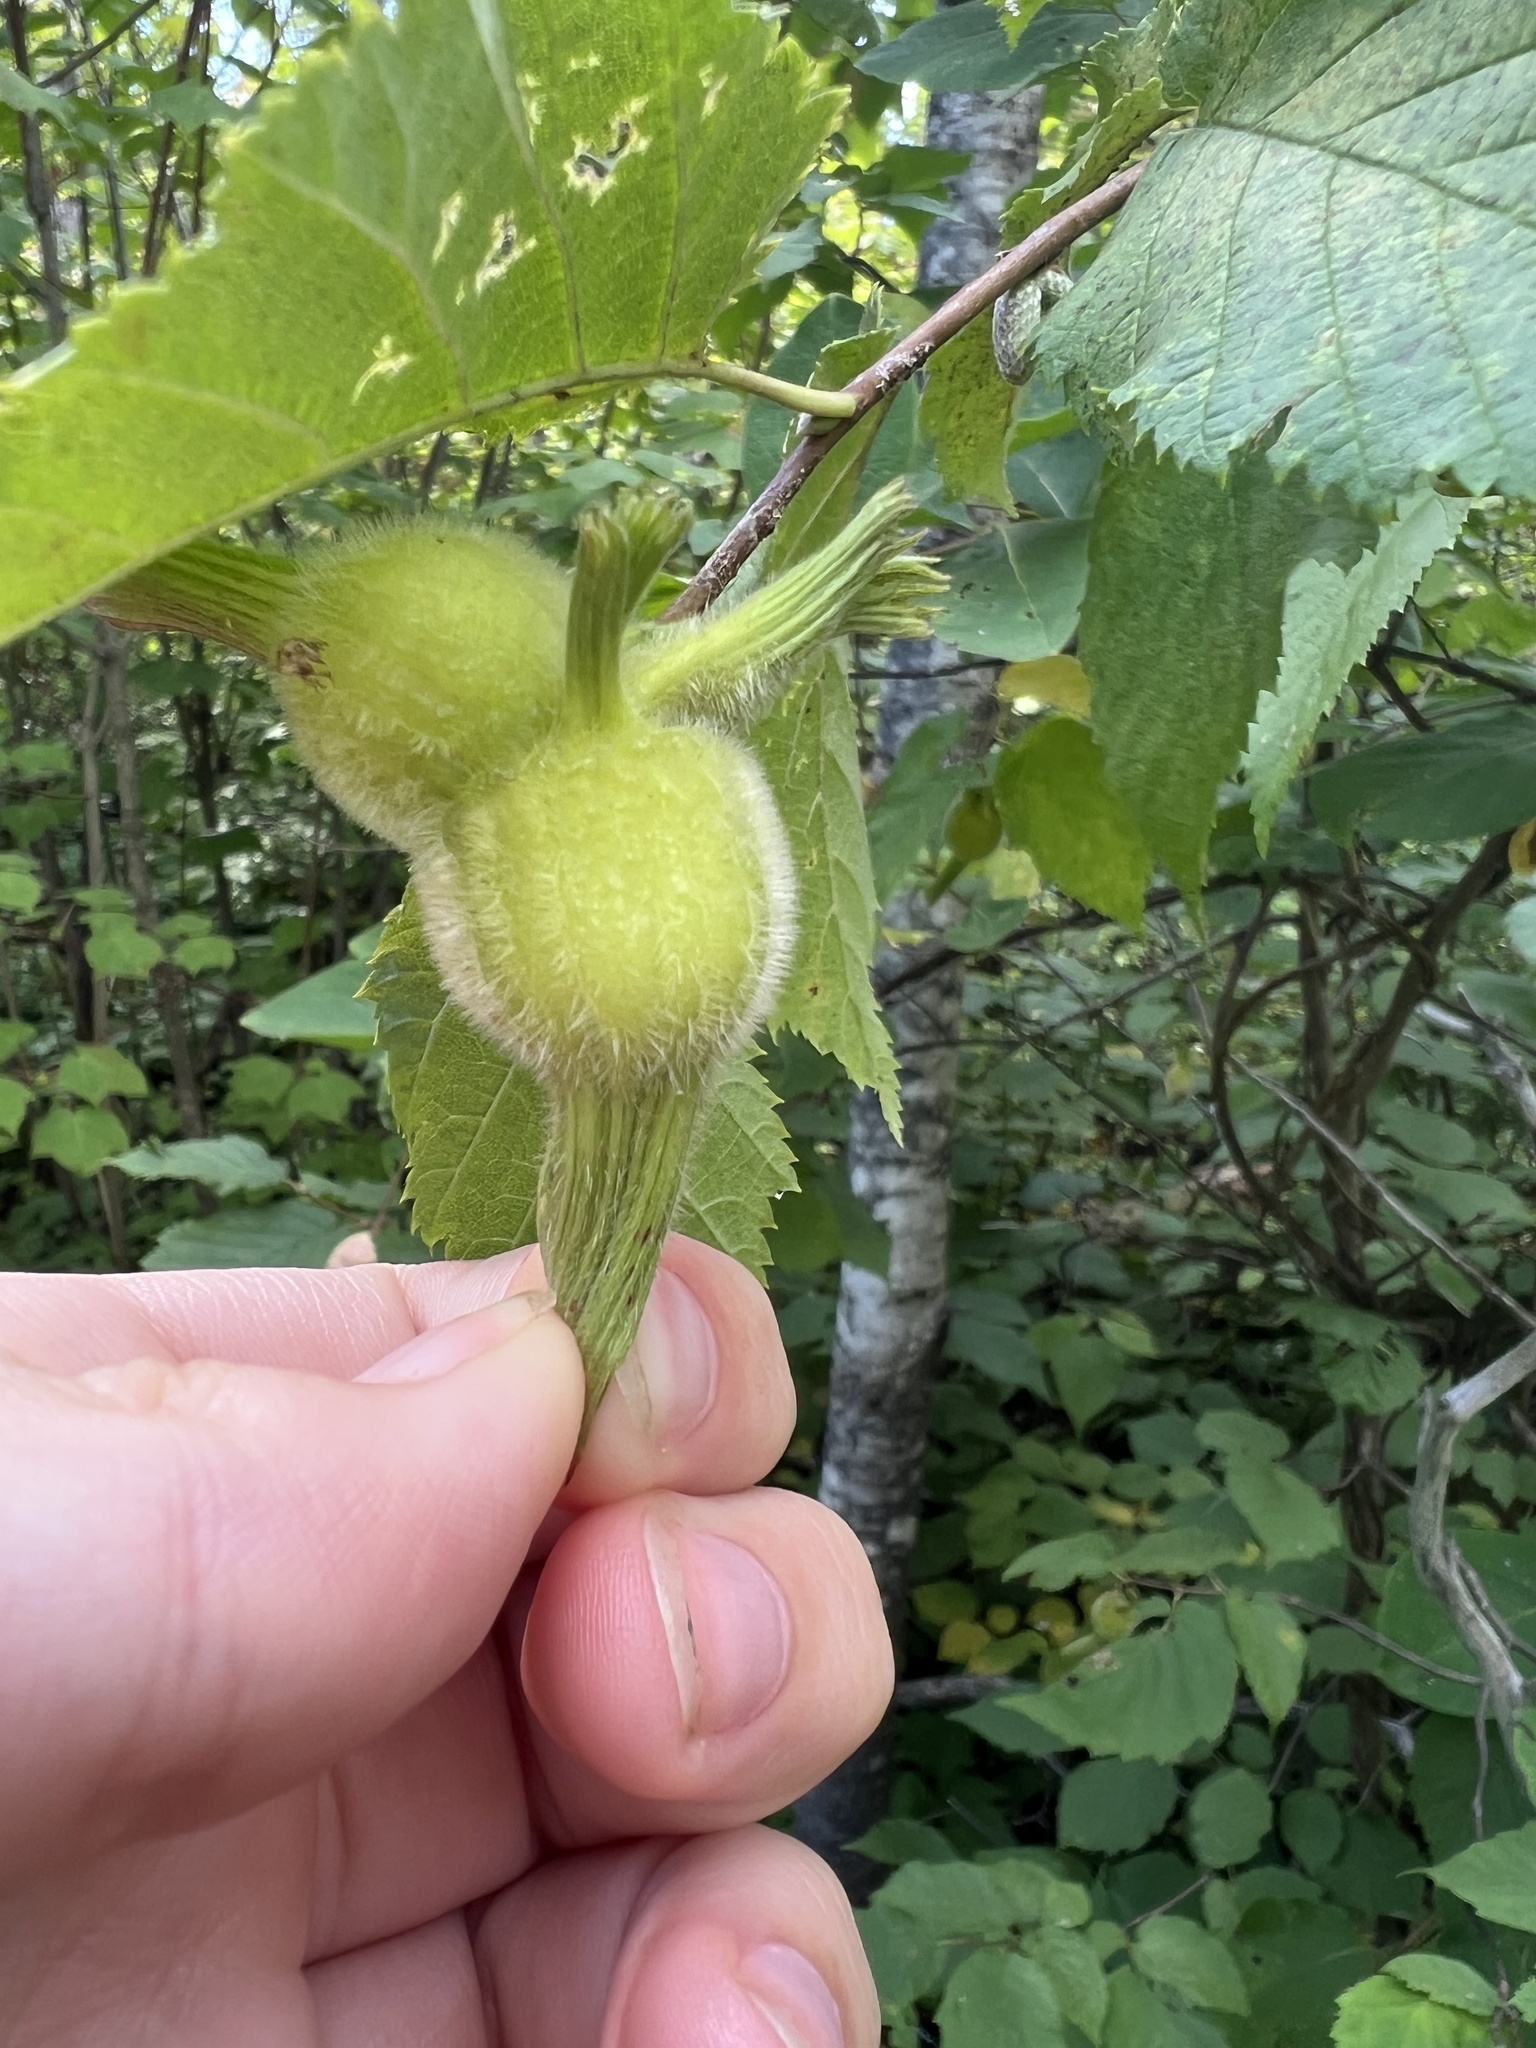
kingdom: Plantae
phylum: Tracheophyta
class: Magnoliopsida
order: Fagales
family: Betulaceae
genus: Corylus
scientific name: Corylus cornuta
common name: Beaked hazel
